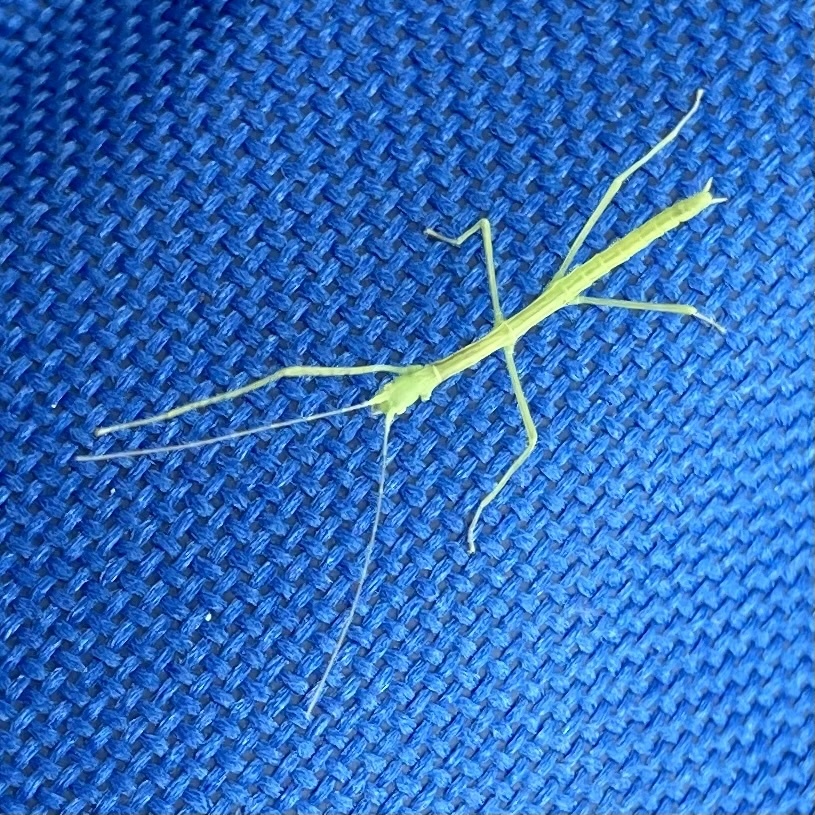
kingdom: Animalia
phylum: Arthropoda
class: Insecta
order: Phasmida
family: Diapheromeridae
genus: Diapheromera
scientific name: Diapheromera femorata
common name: Common american walkingstick
